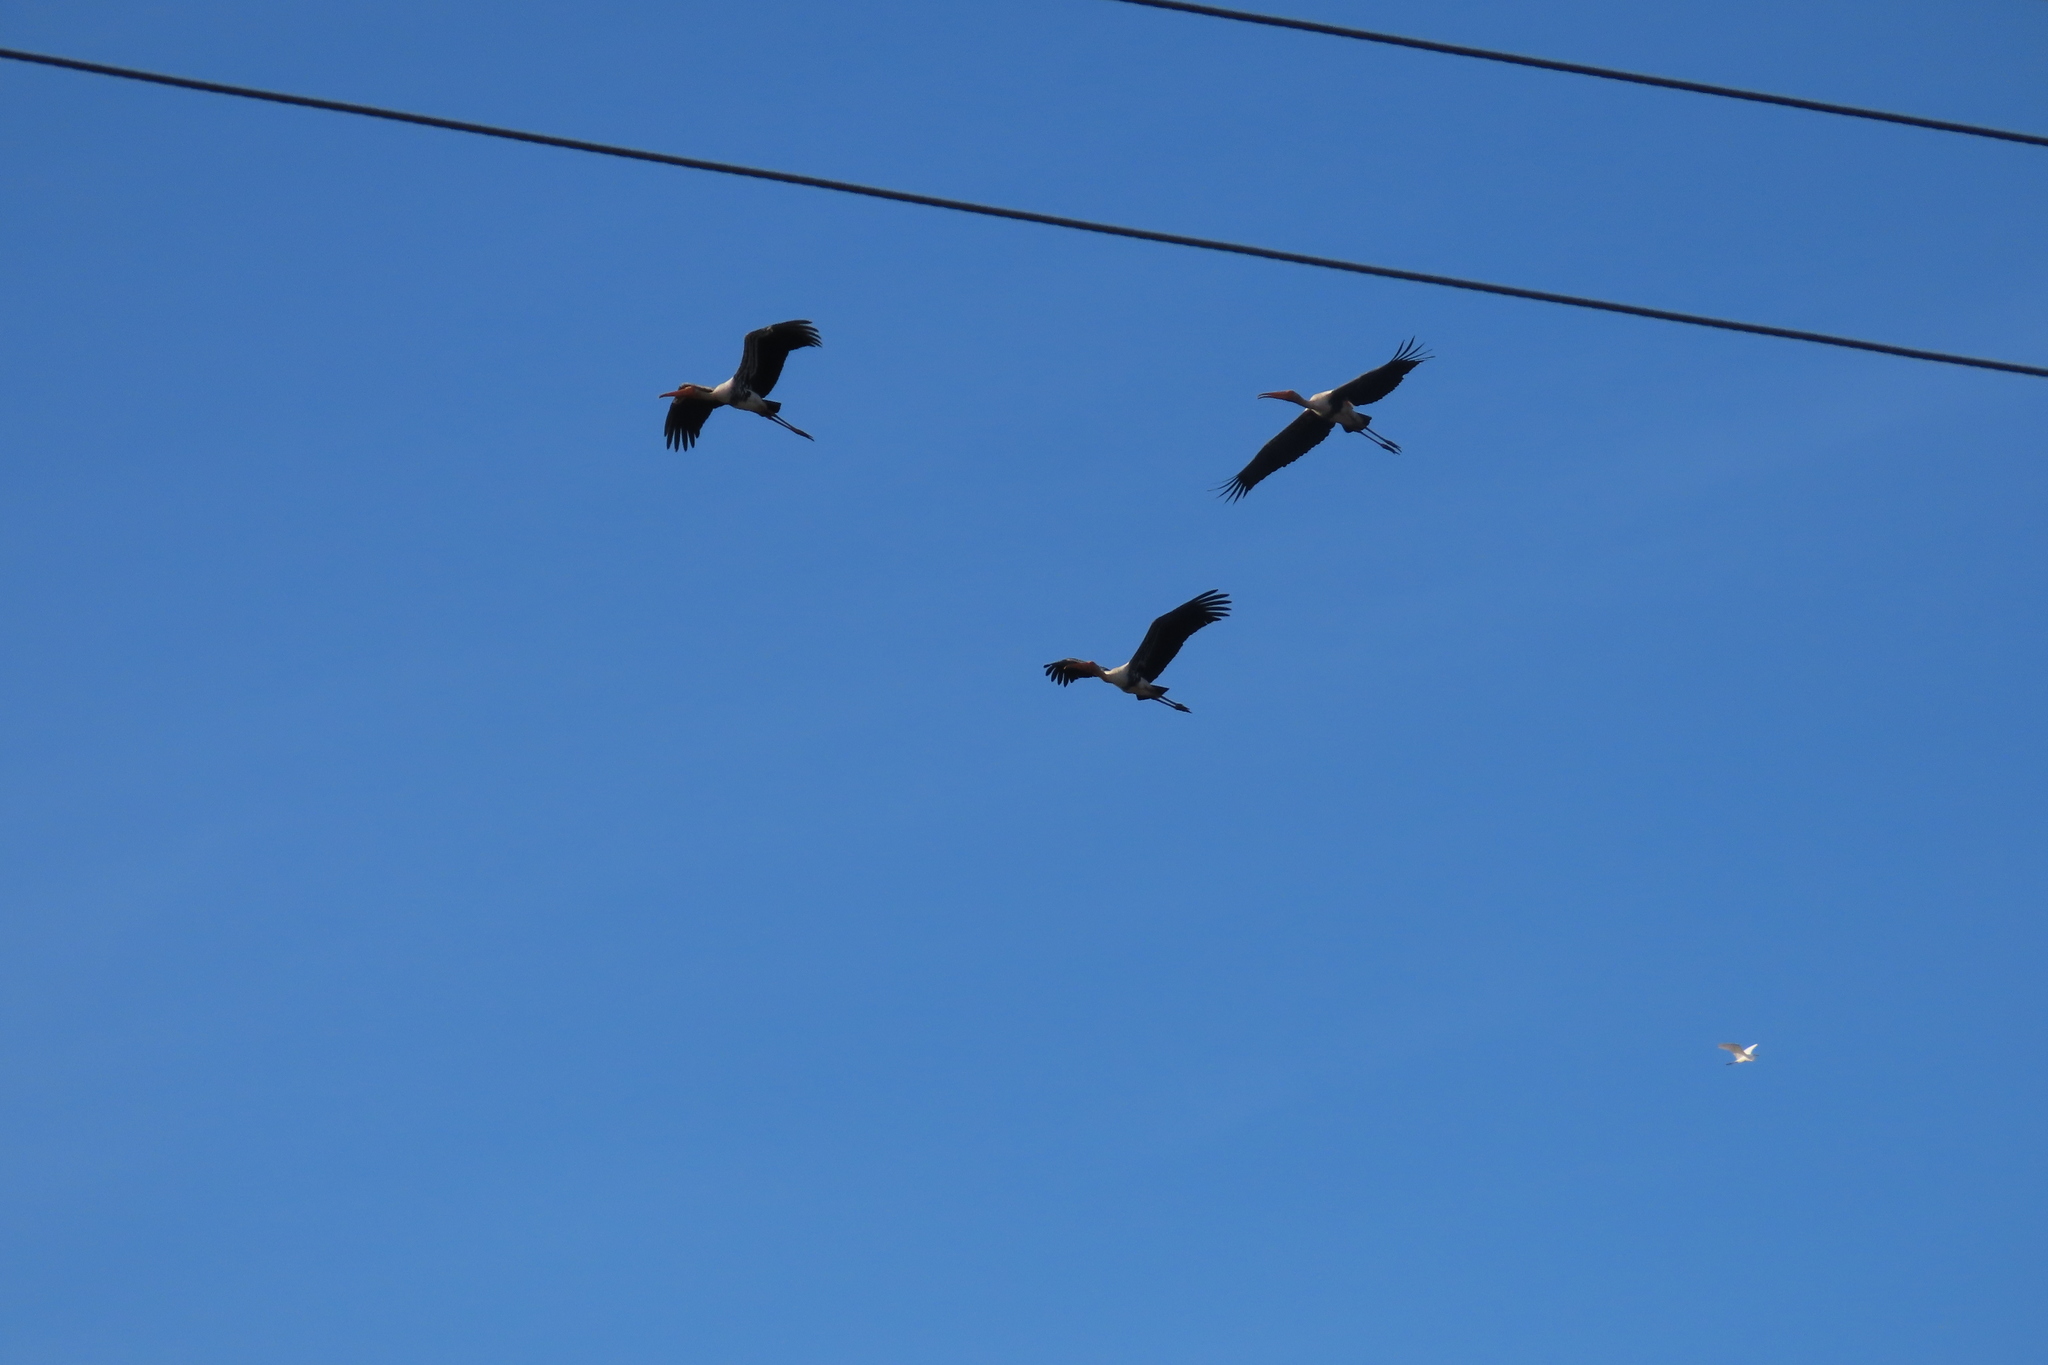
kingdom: Animalia
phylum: Chordata
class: Aves
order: Ciconiiformes
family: Ciconiidae
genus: Mycteria
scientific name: Mycteria leucocephala
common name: Painted stork
